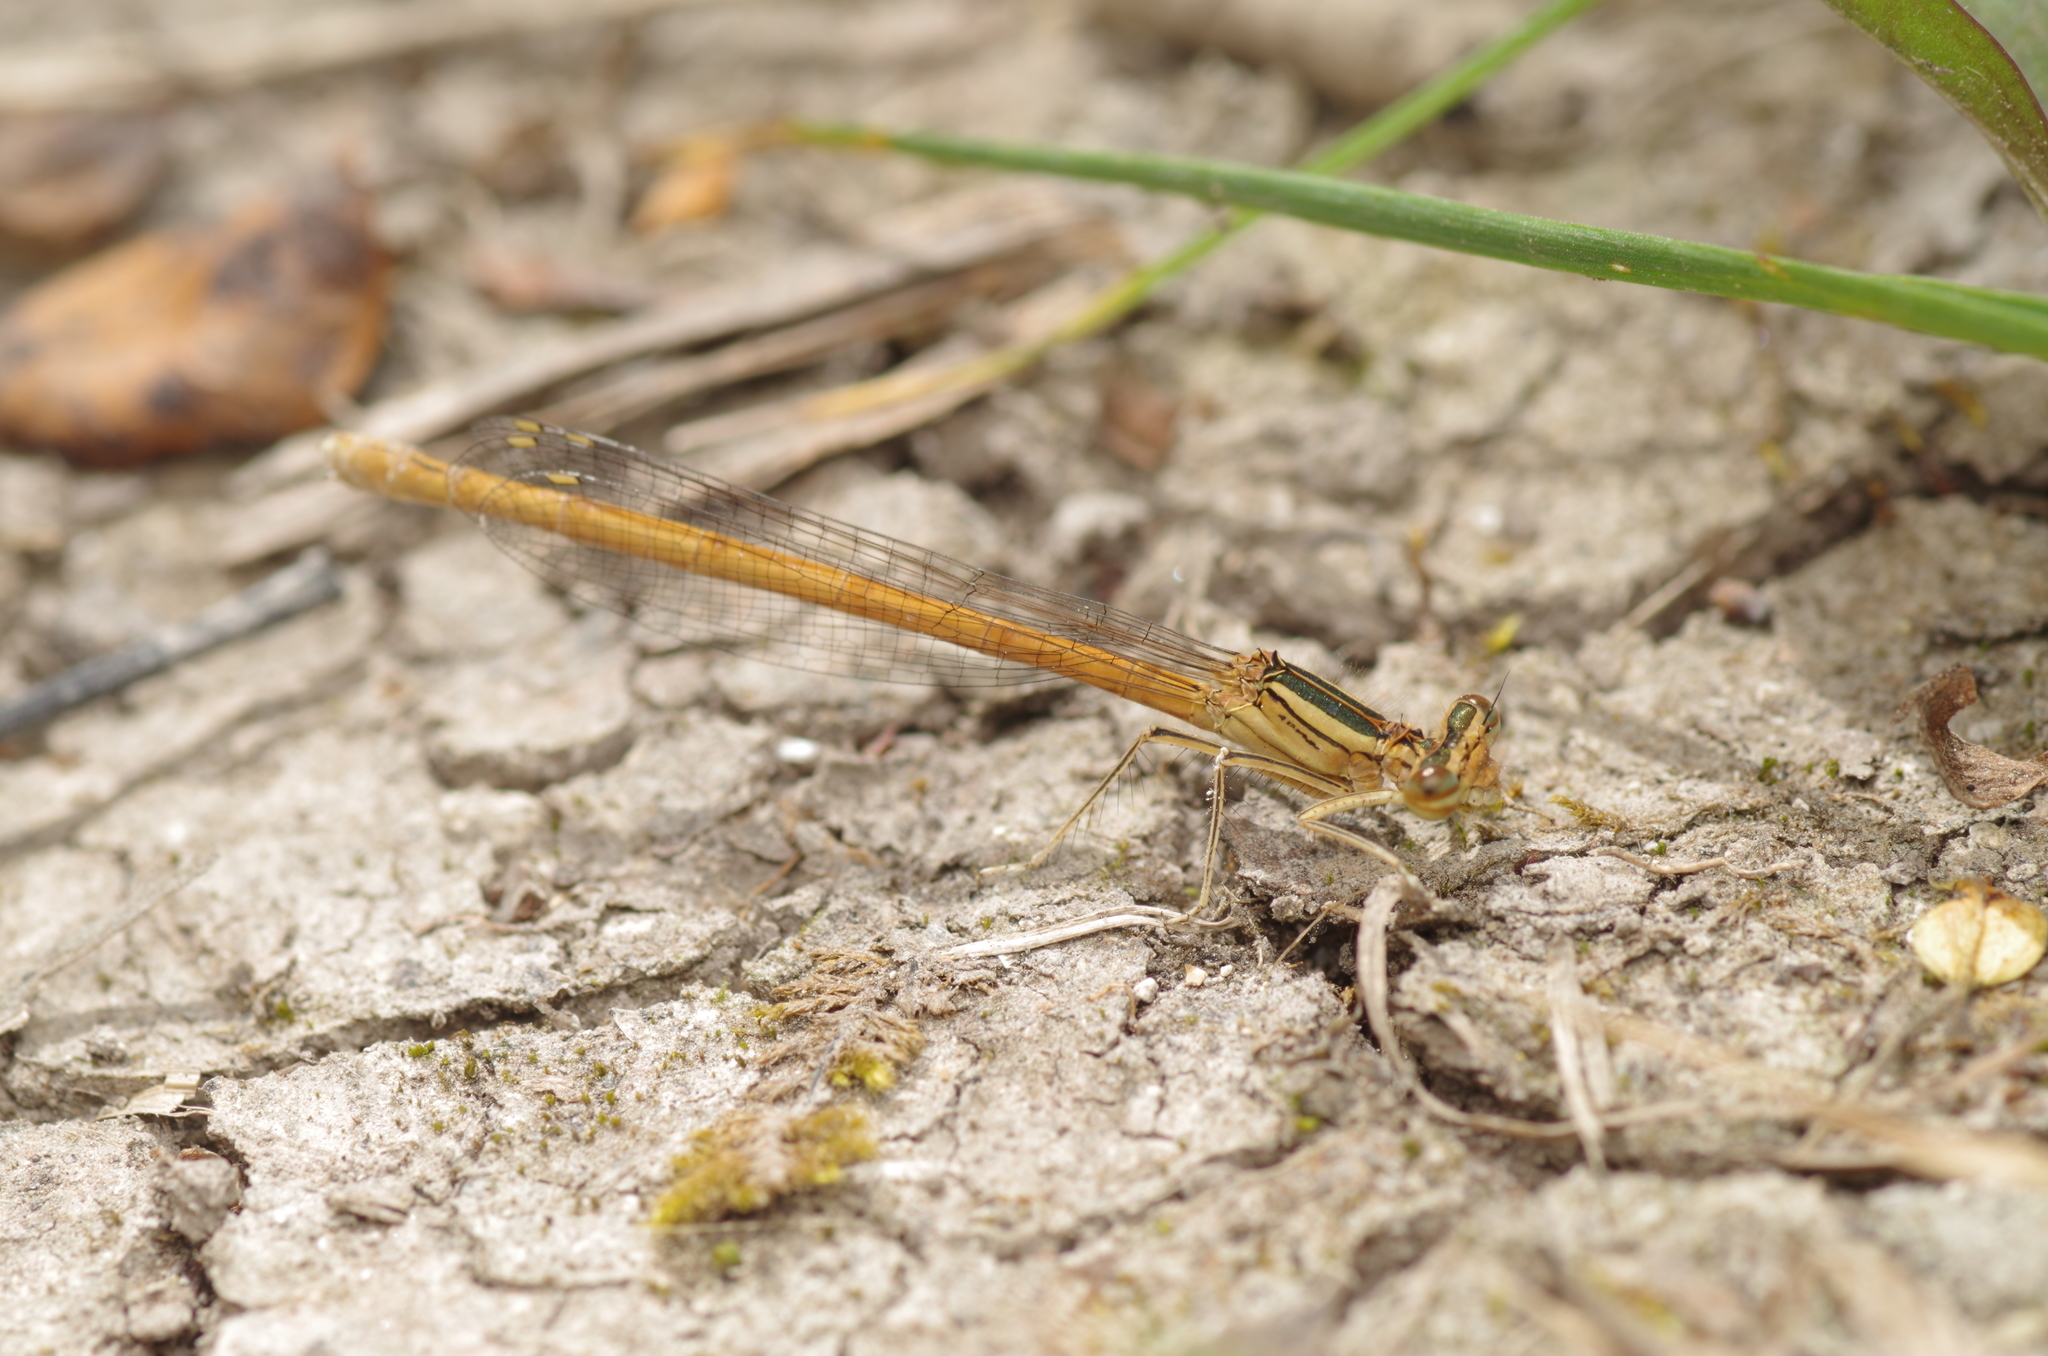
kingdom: Animalia
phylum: Arthropoda
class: Insecta
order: Odonata
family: Platycnemididae
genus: Platycnemis
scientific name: Platycnemis acutipennis
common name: Orange featherleg
